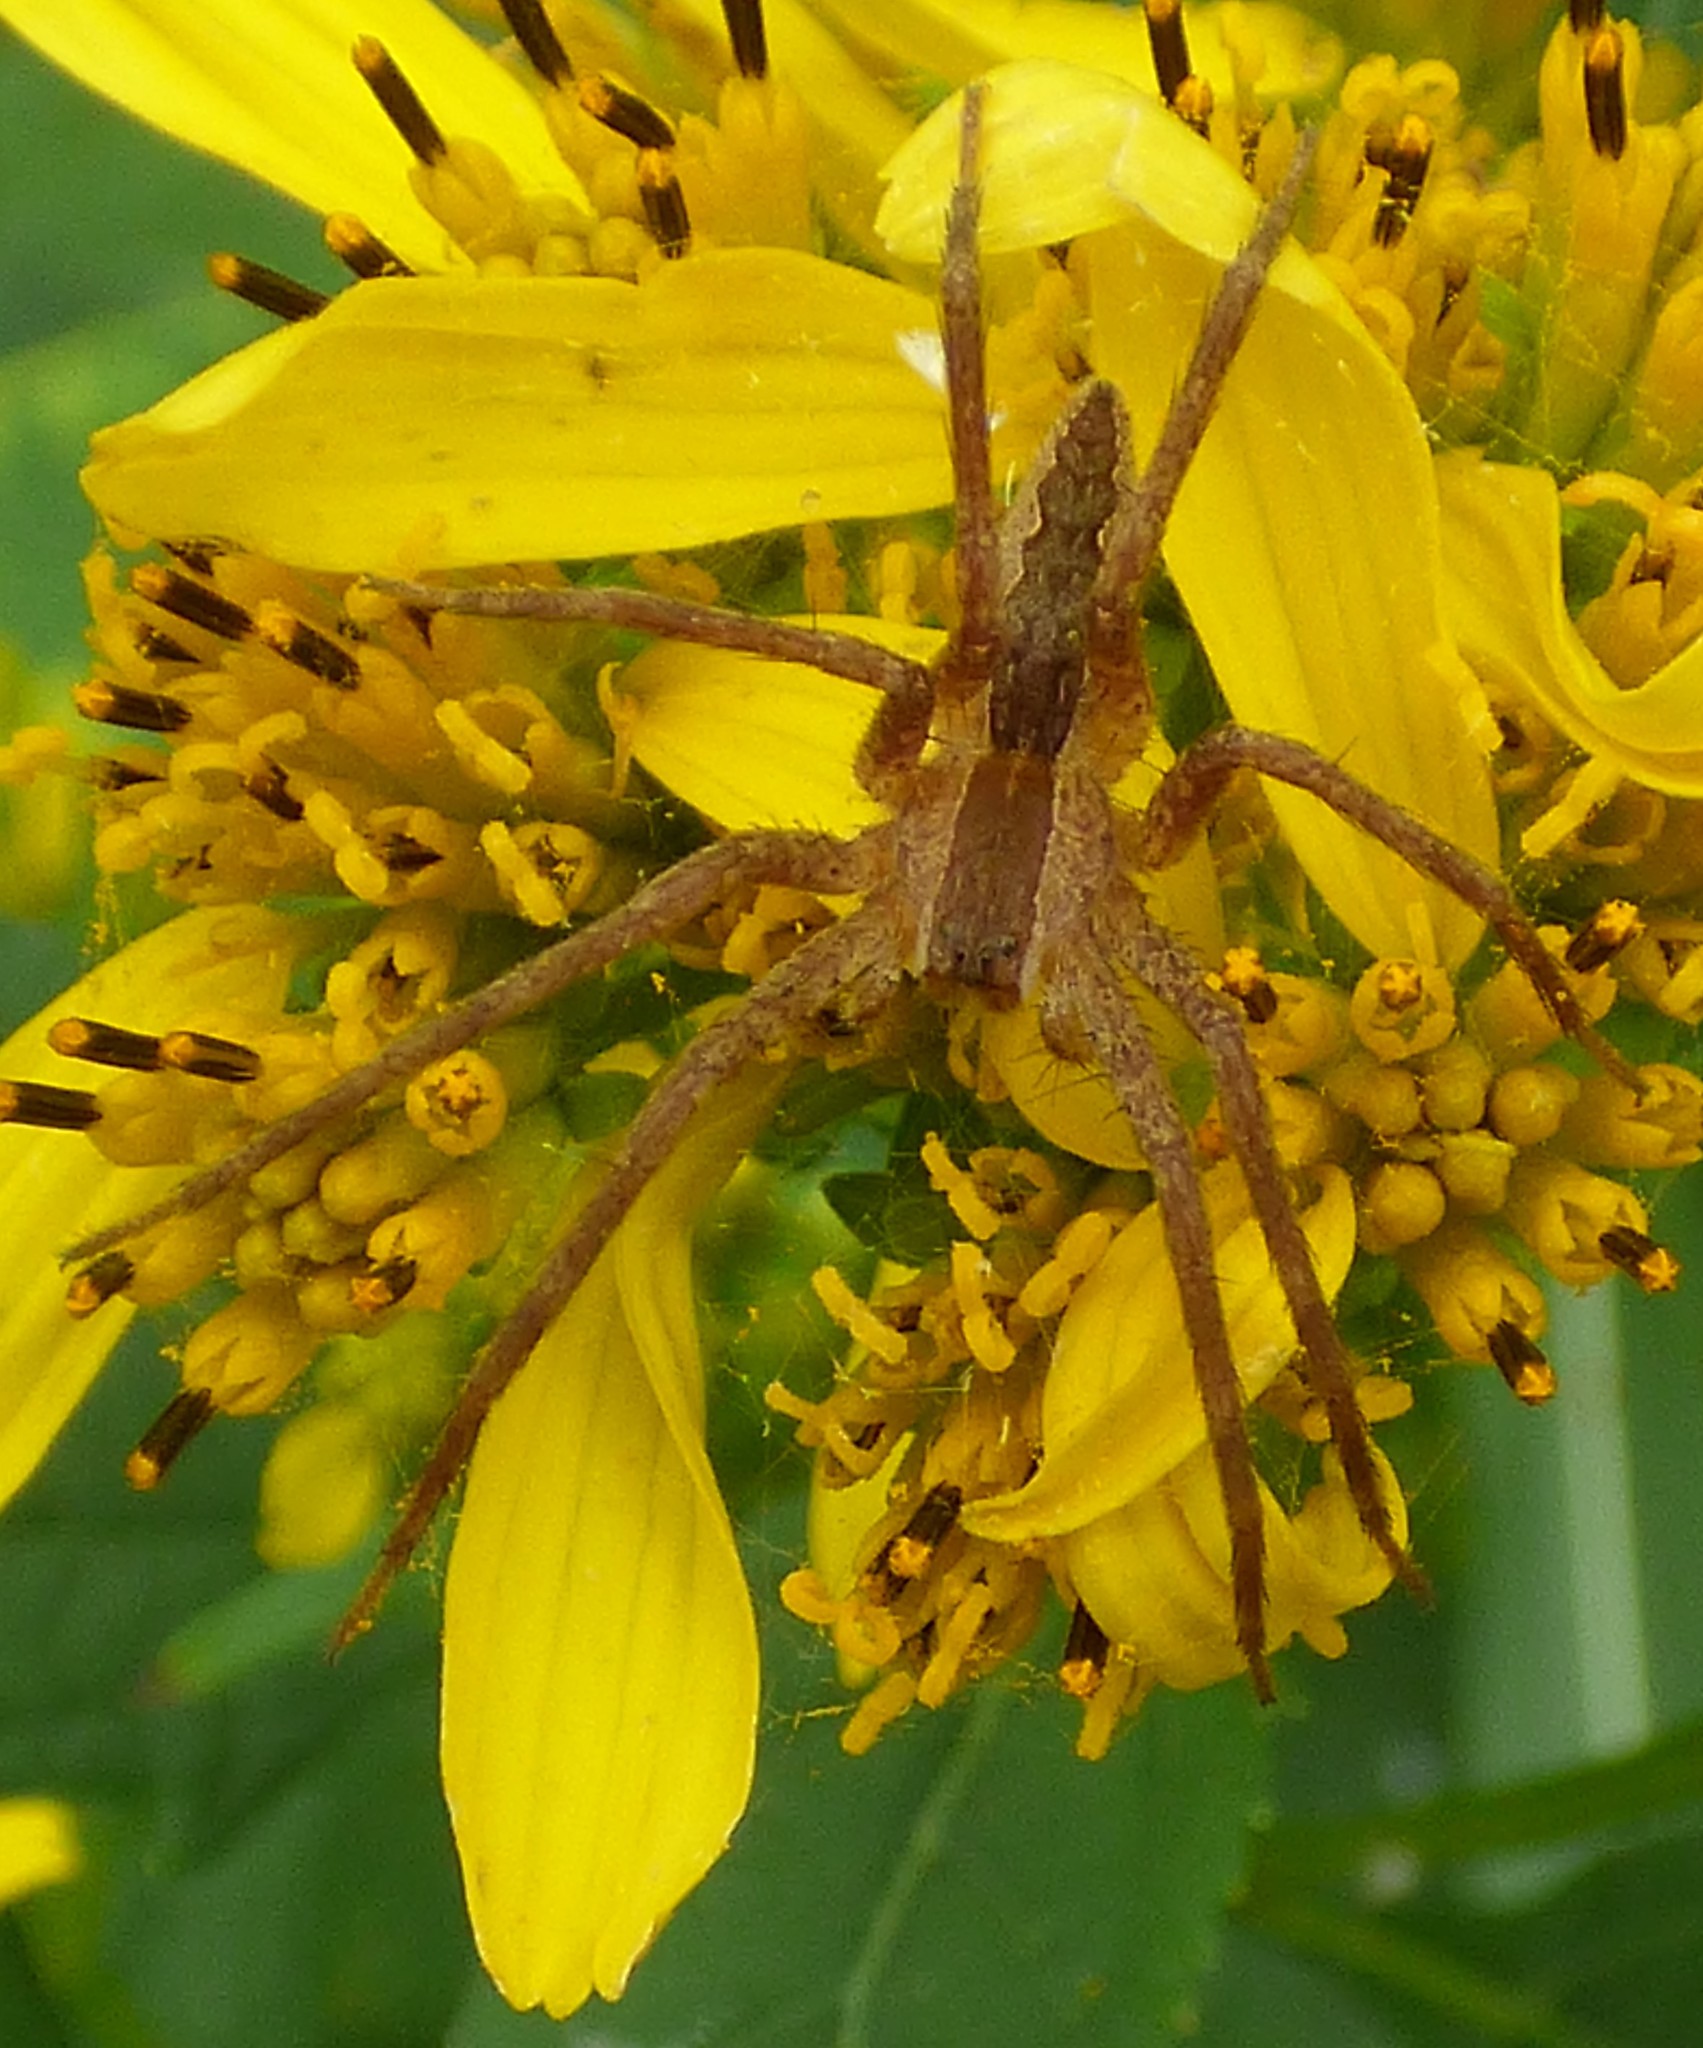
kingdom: Animalia
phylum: Arthropoda
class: Arachnida
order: Araneae
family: Pisauridae
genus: Pisaurina
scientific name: Pisaurina mira
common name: American nursery web spider
